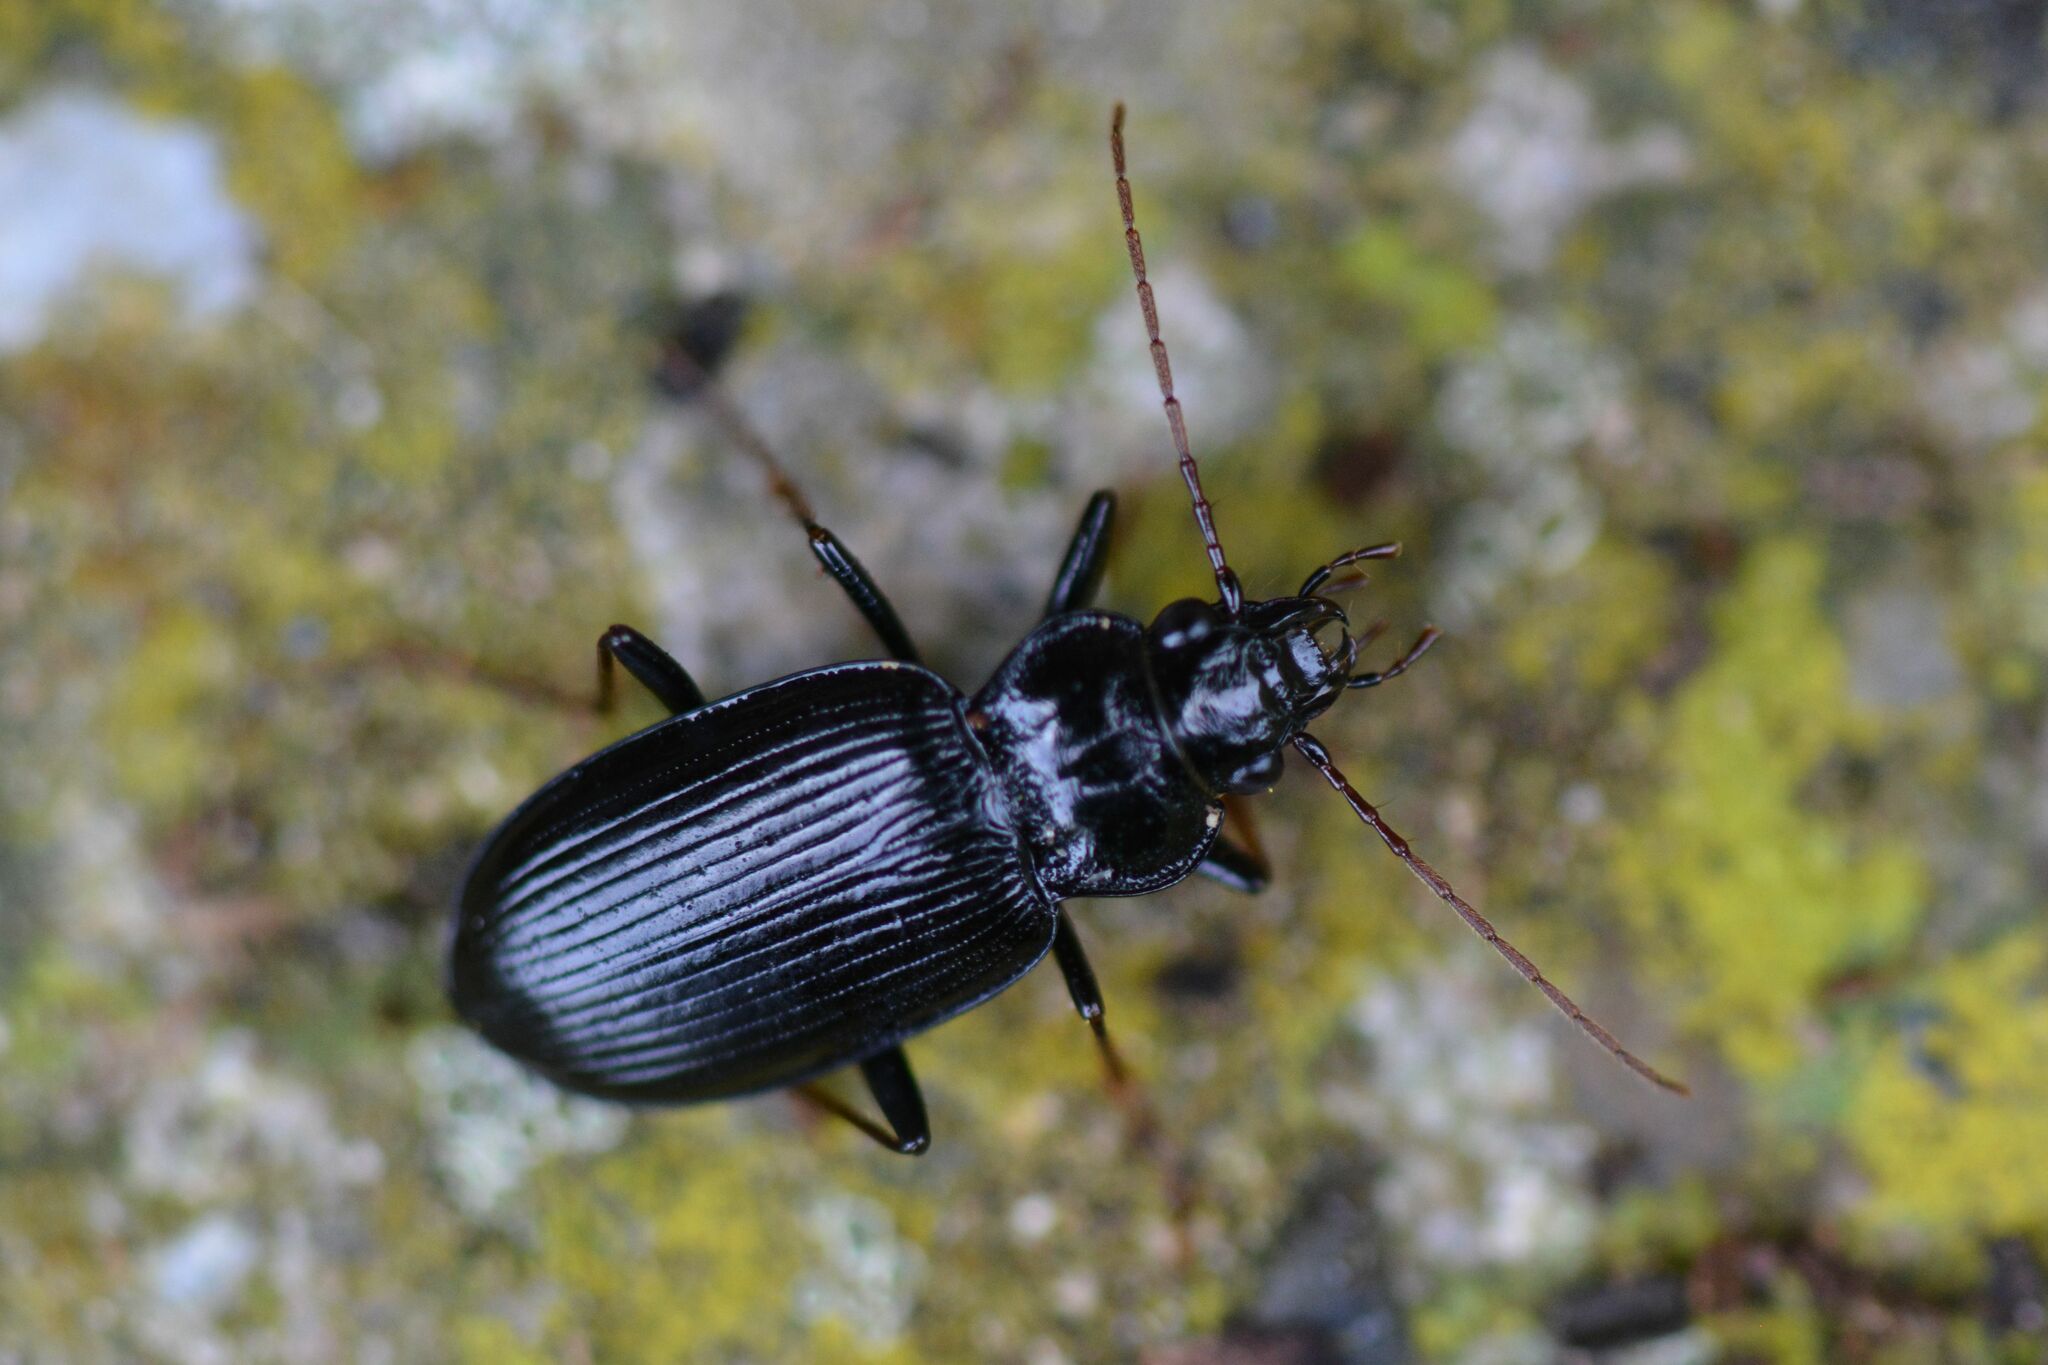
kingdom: Animalia
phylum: Arthropoda
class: Insecta
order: Coleoptera
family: Carabidae
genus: Nebria
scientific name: Nebria salina
